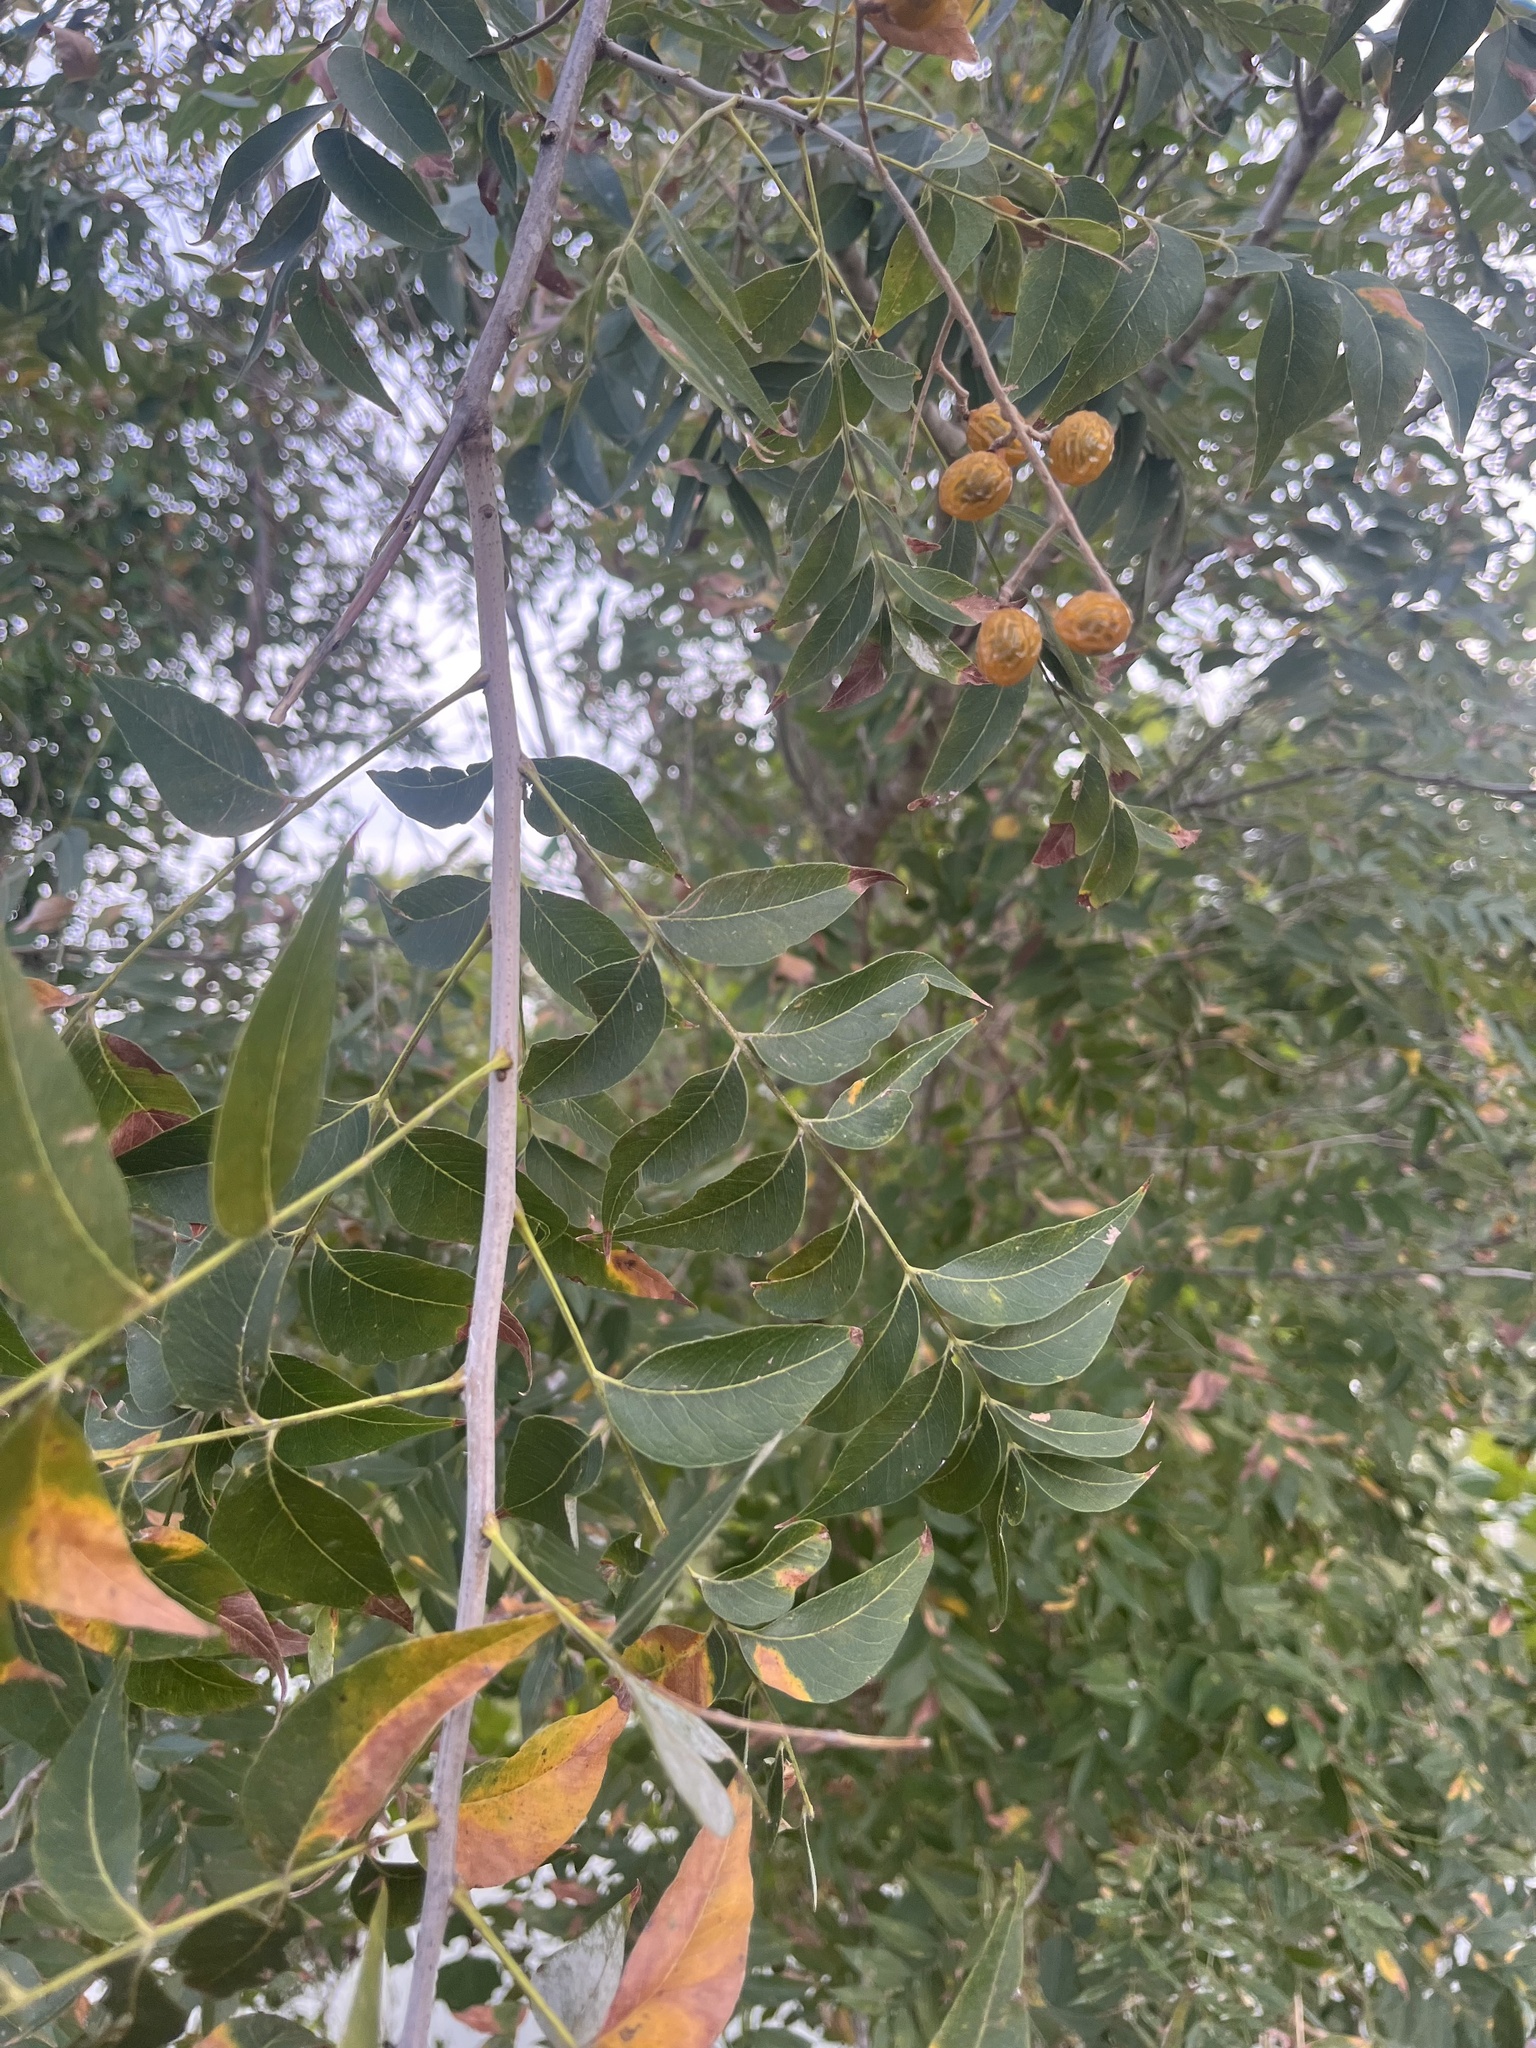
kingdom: Plantae
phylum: Tracheophyta
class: Magnoliopsida
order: Sapindales
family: Sapindaceae
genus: Sapindus
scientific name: Sapindus drummondii
